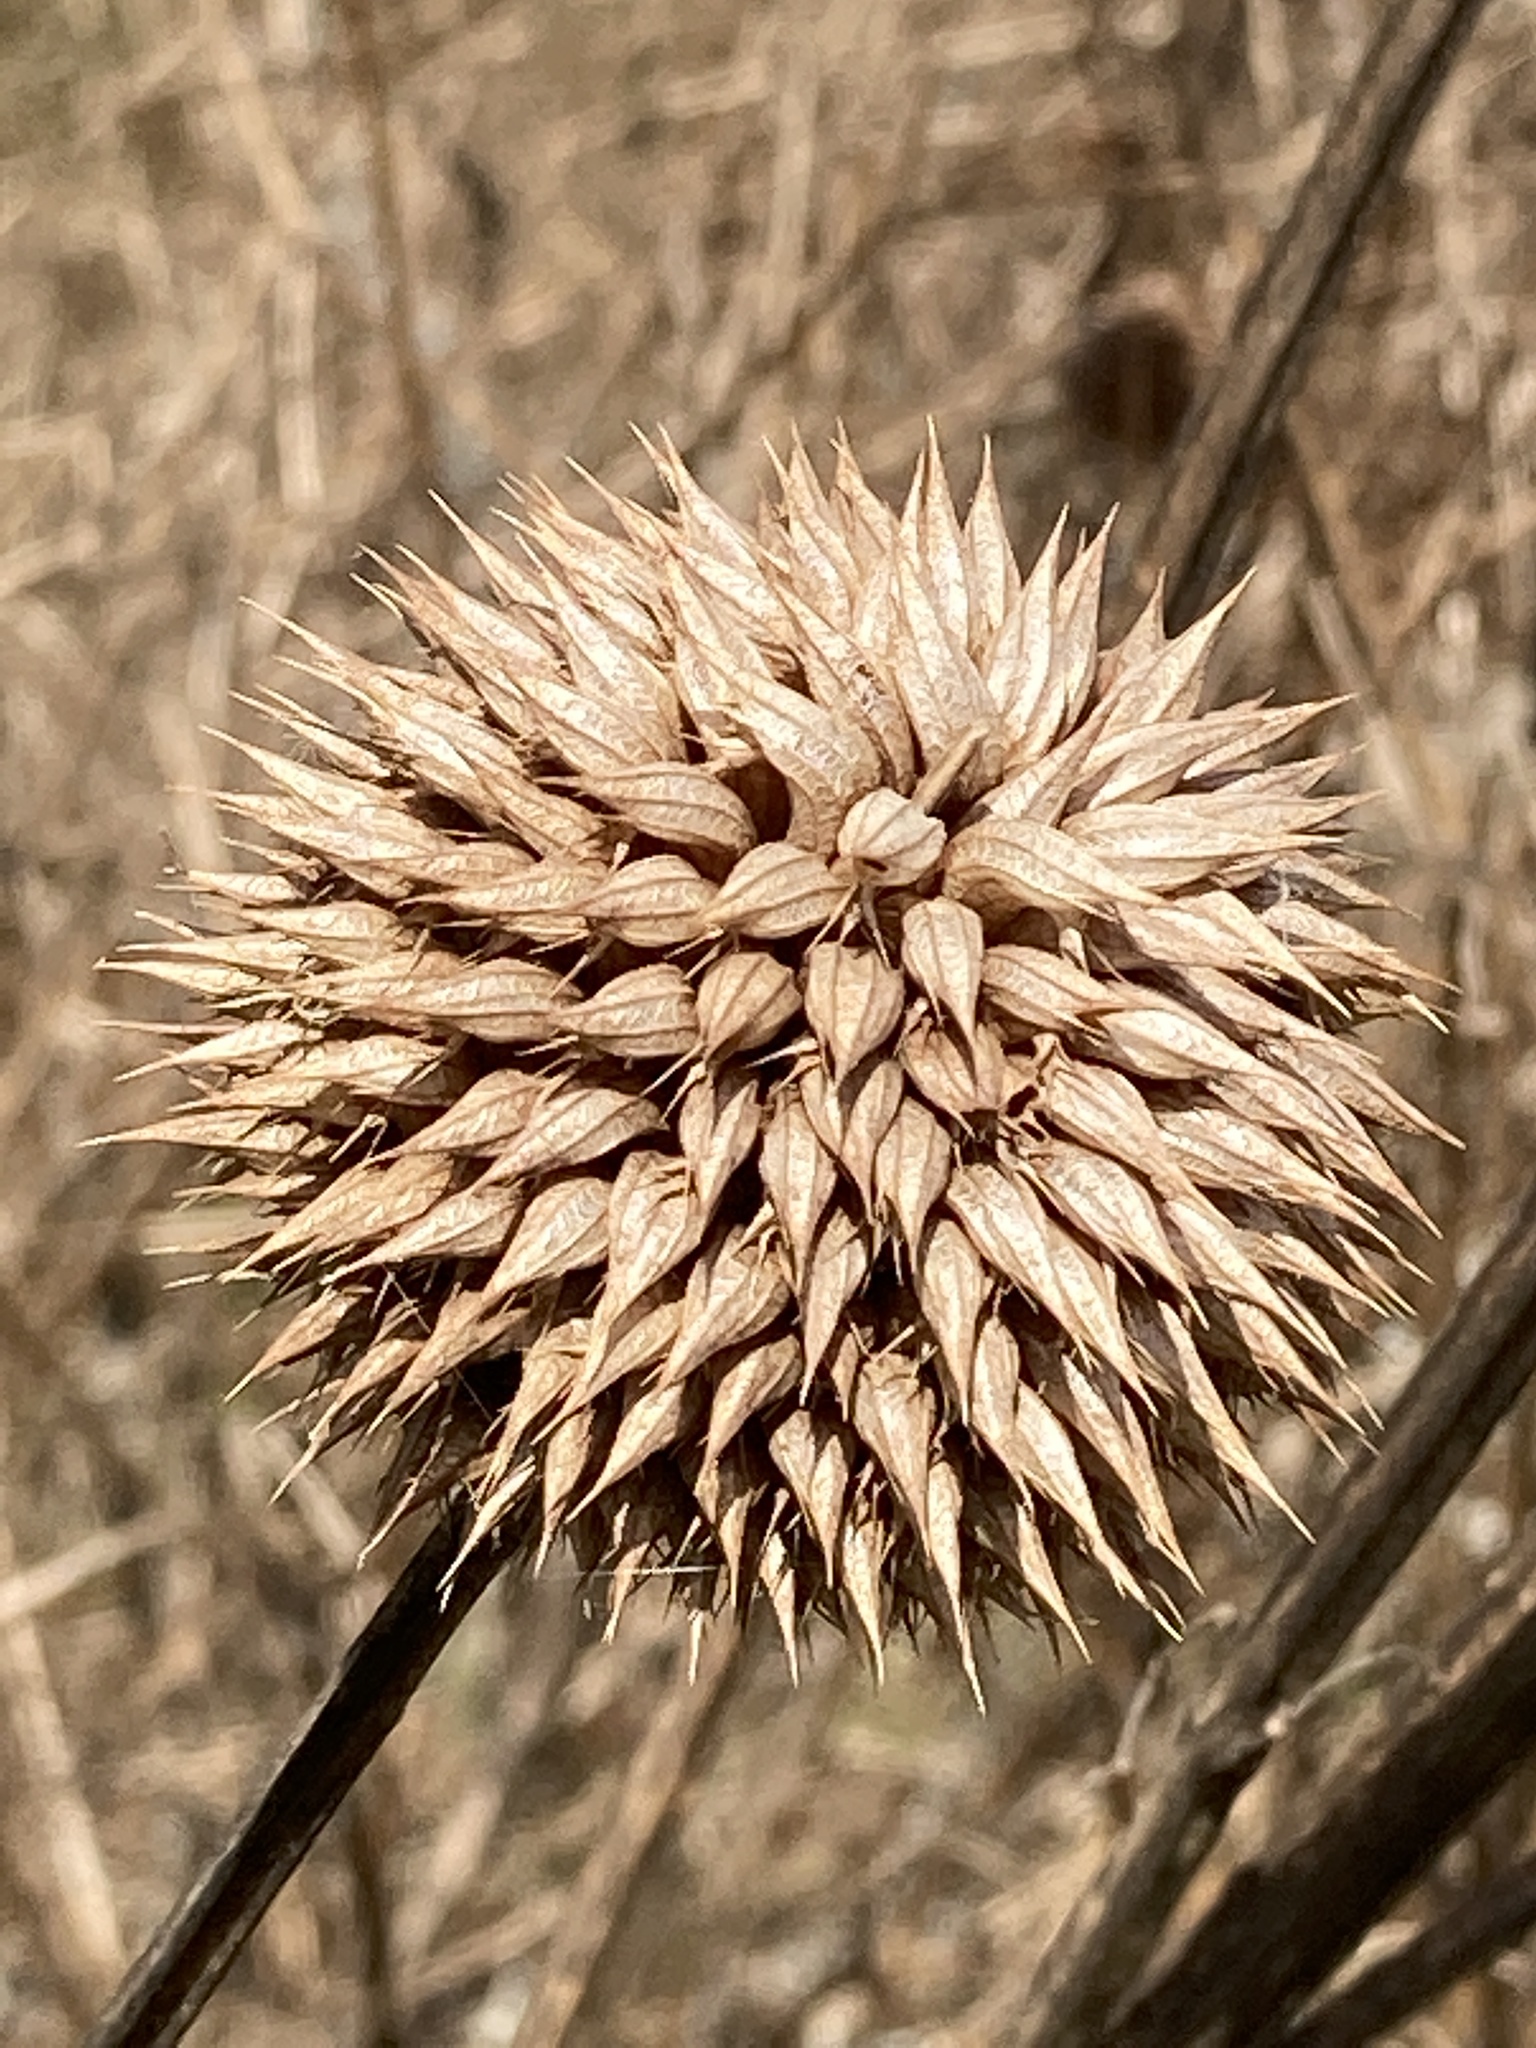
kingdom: Plantae
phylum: Tracheophyta
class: Magnoliopsida
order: Lamiales
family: Lamiaceae
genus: Leonotis
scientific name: Leonotis nepetifolia
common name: Christmas candlestick
